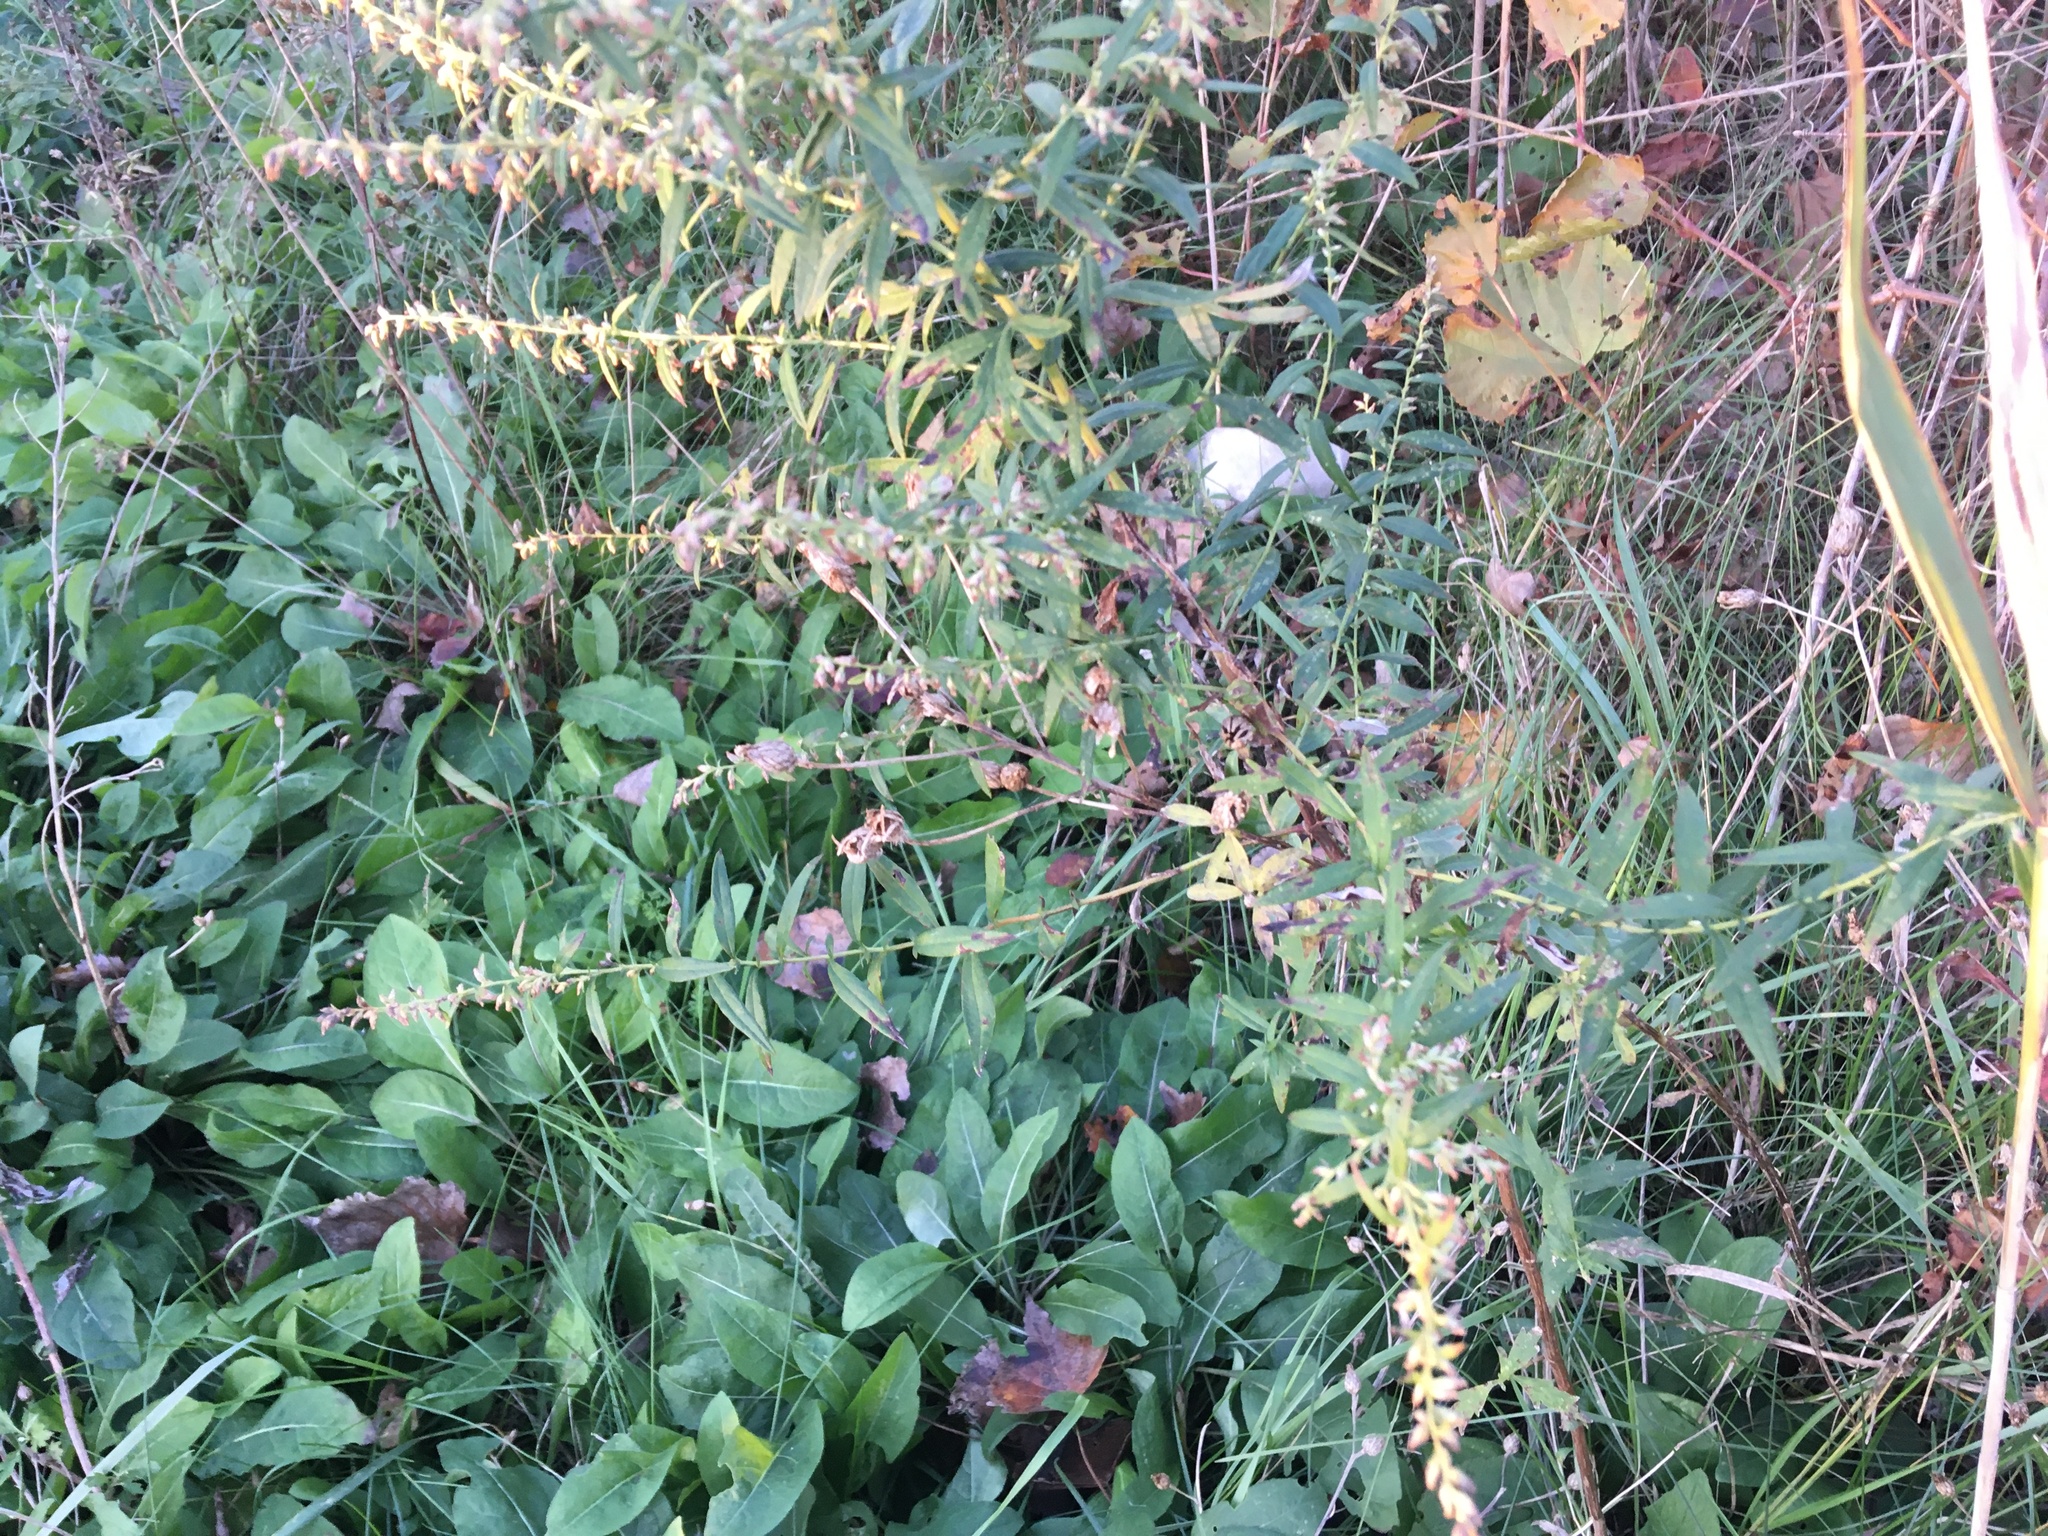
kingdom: Plantae
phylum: Tracheophyta
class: Magnoliopsida
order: Asterales
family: Asteraceae
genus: Artemisia
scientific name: Artemisia vulgaris
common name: Mugwort
